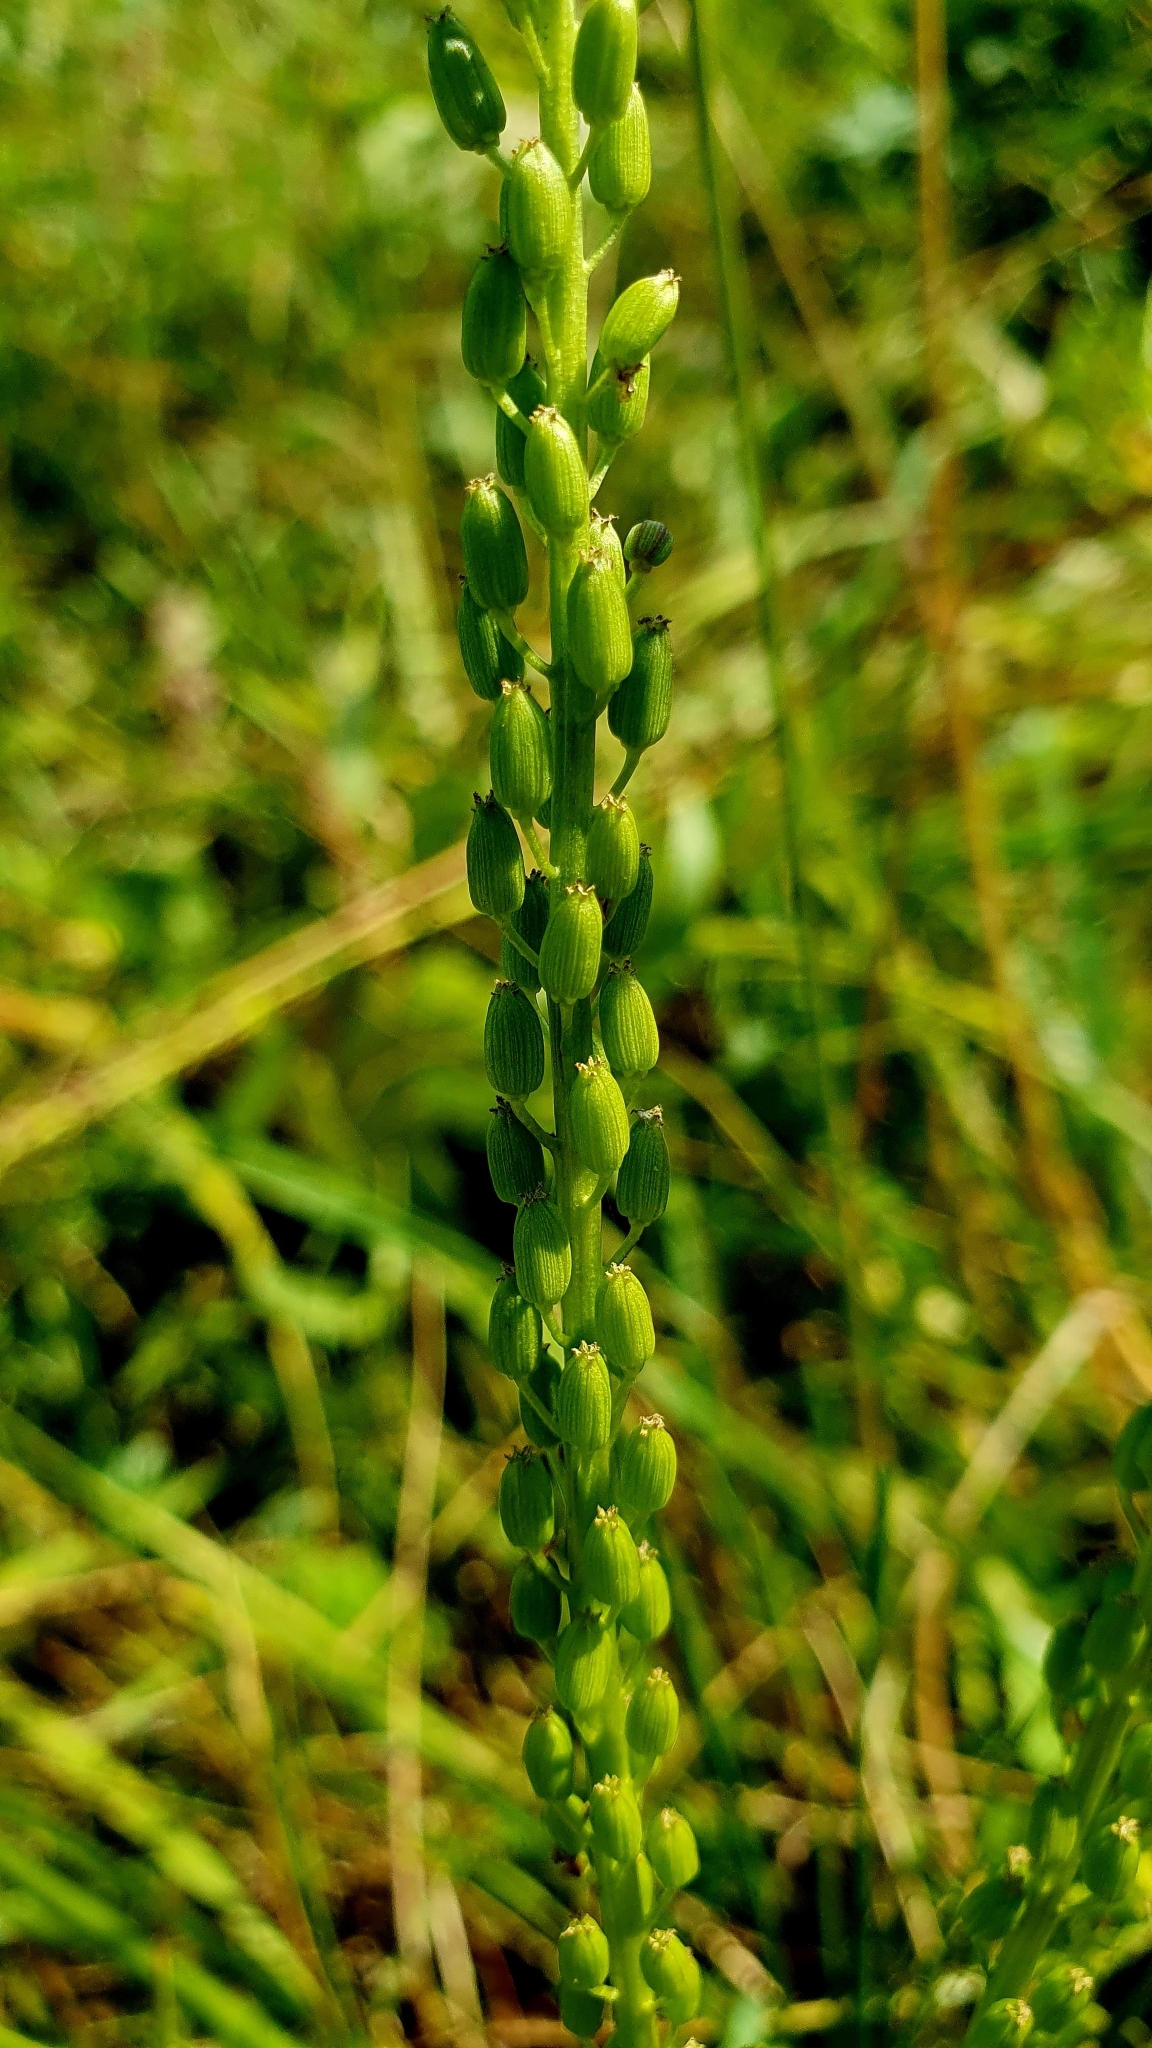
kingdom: Plantae
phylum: Tracheophyta
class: Liliopsida
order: Alismatales
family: Juncaginaceae
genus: Triglochin
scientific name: Triglochin maritima
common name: Sea arrowgrass
